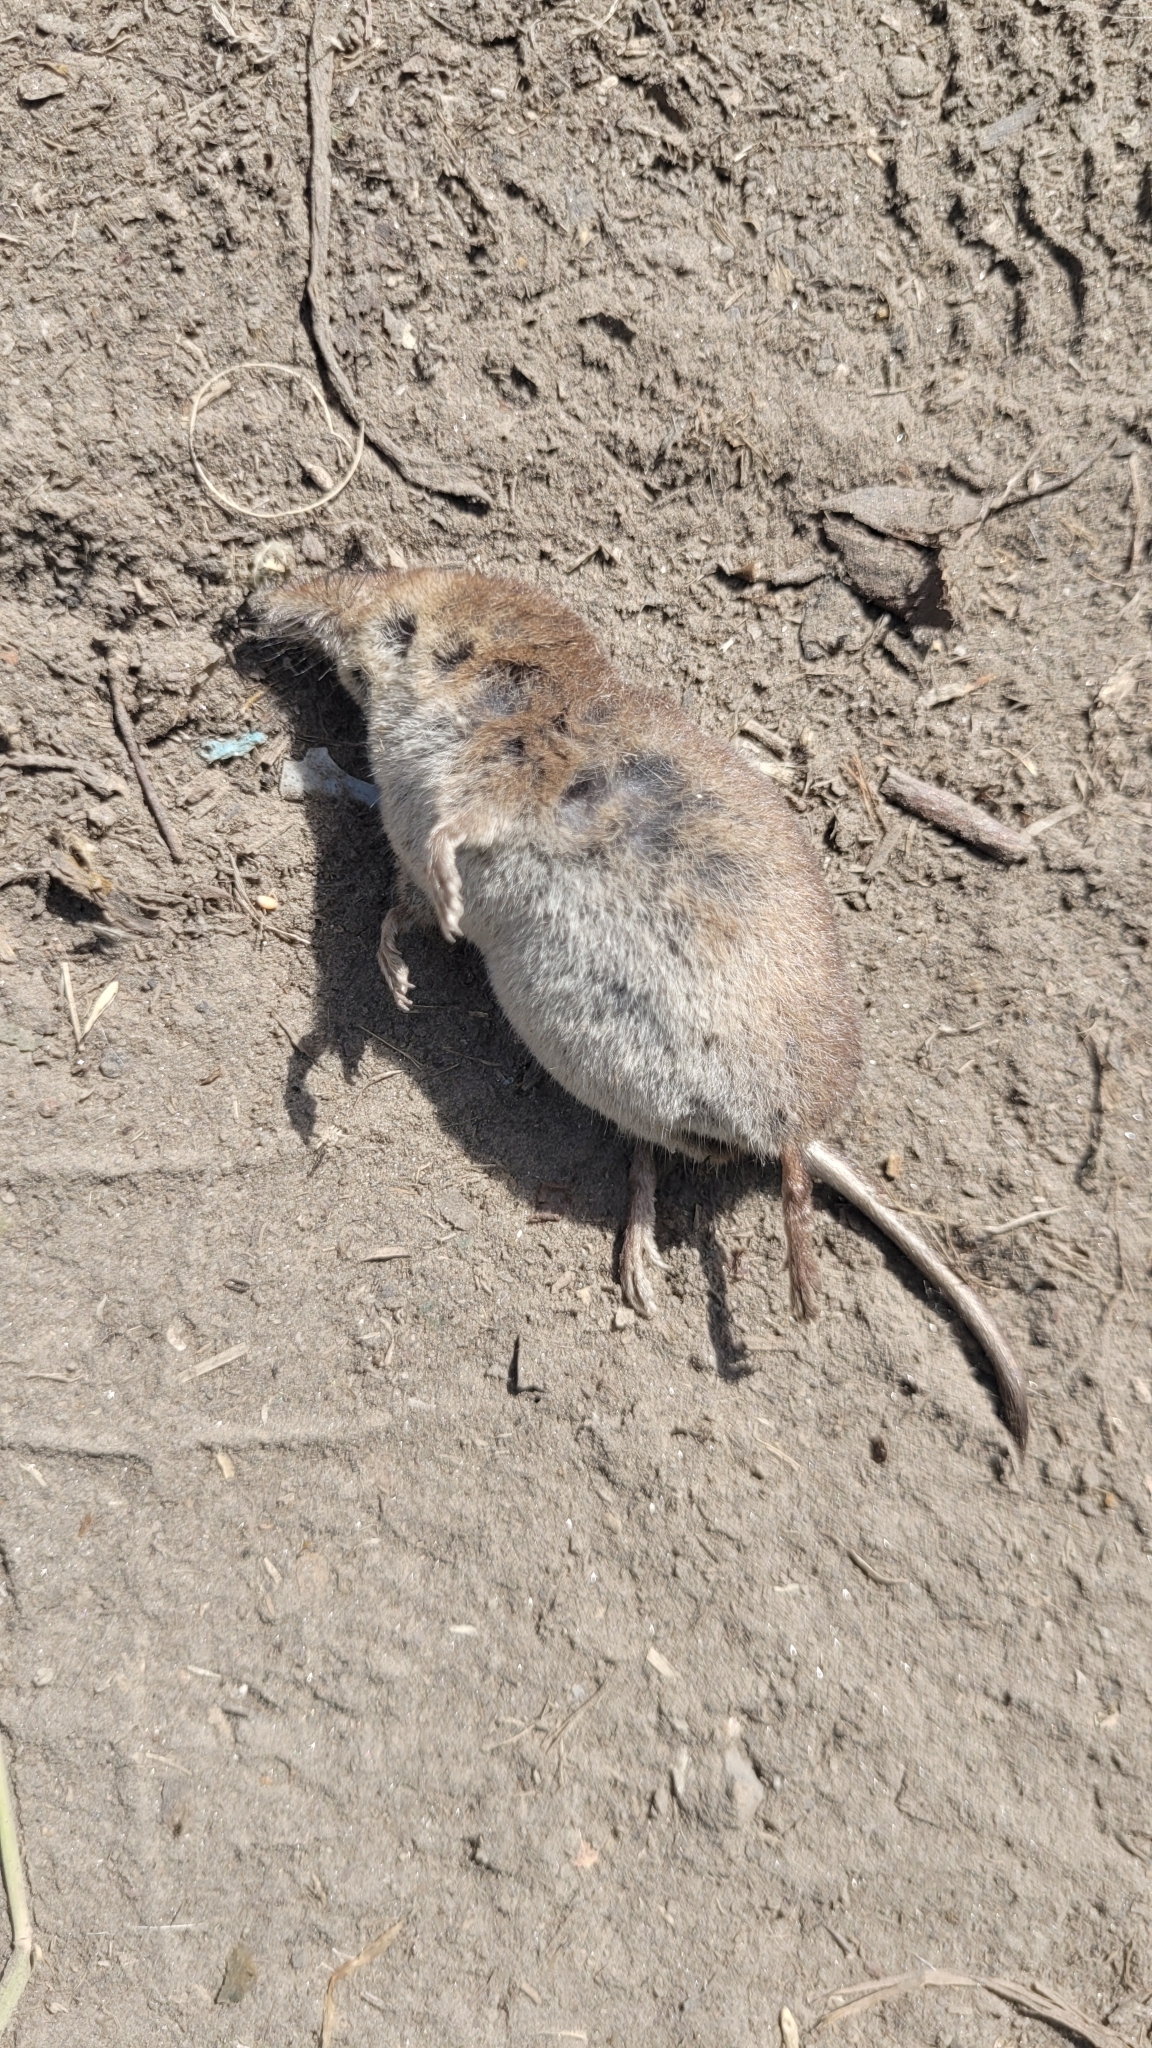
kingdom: Animalia
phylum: Chordata
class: Mammalia
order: Soricomorpha
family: Soricidae
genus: Sorex
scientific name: Sorex araneus
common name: Common shrew
